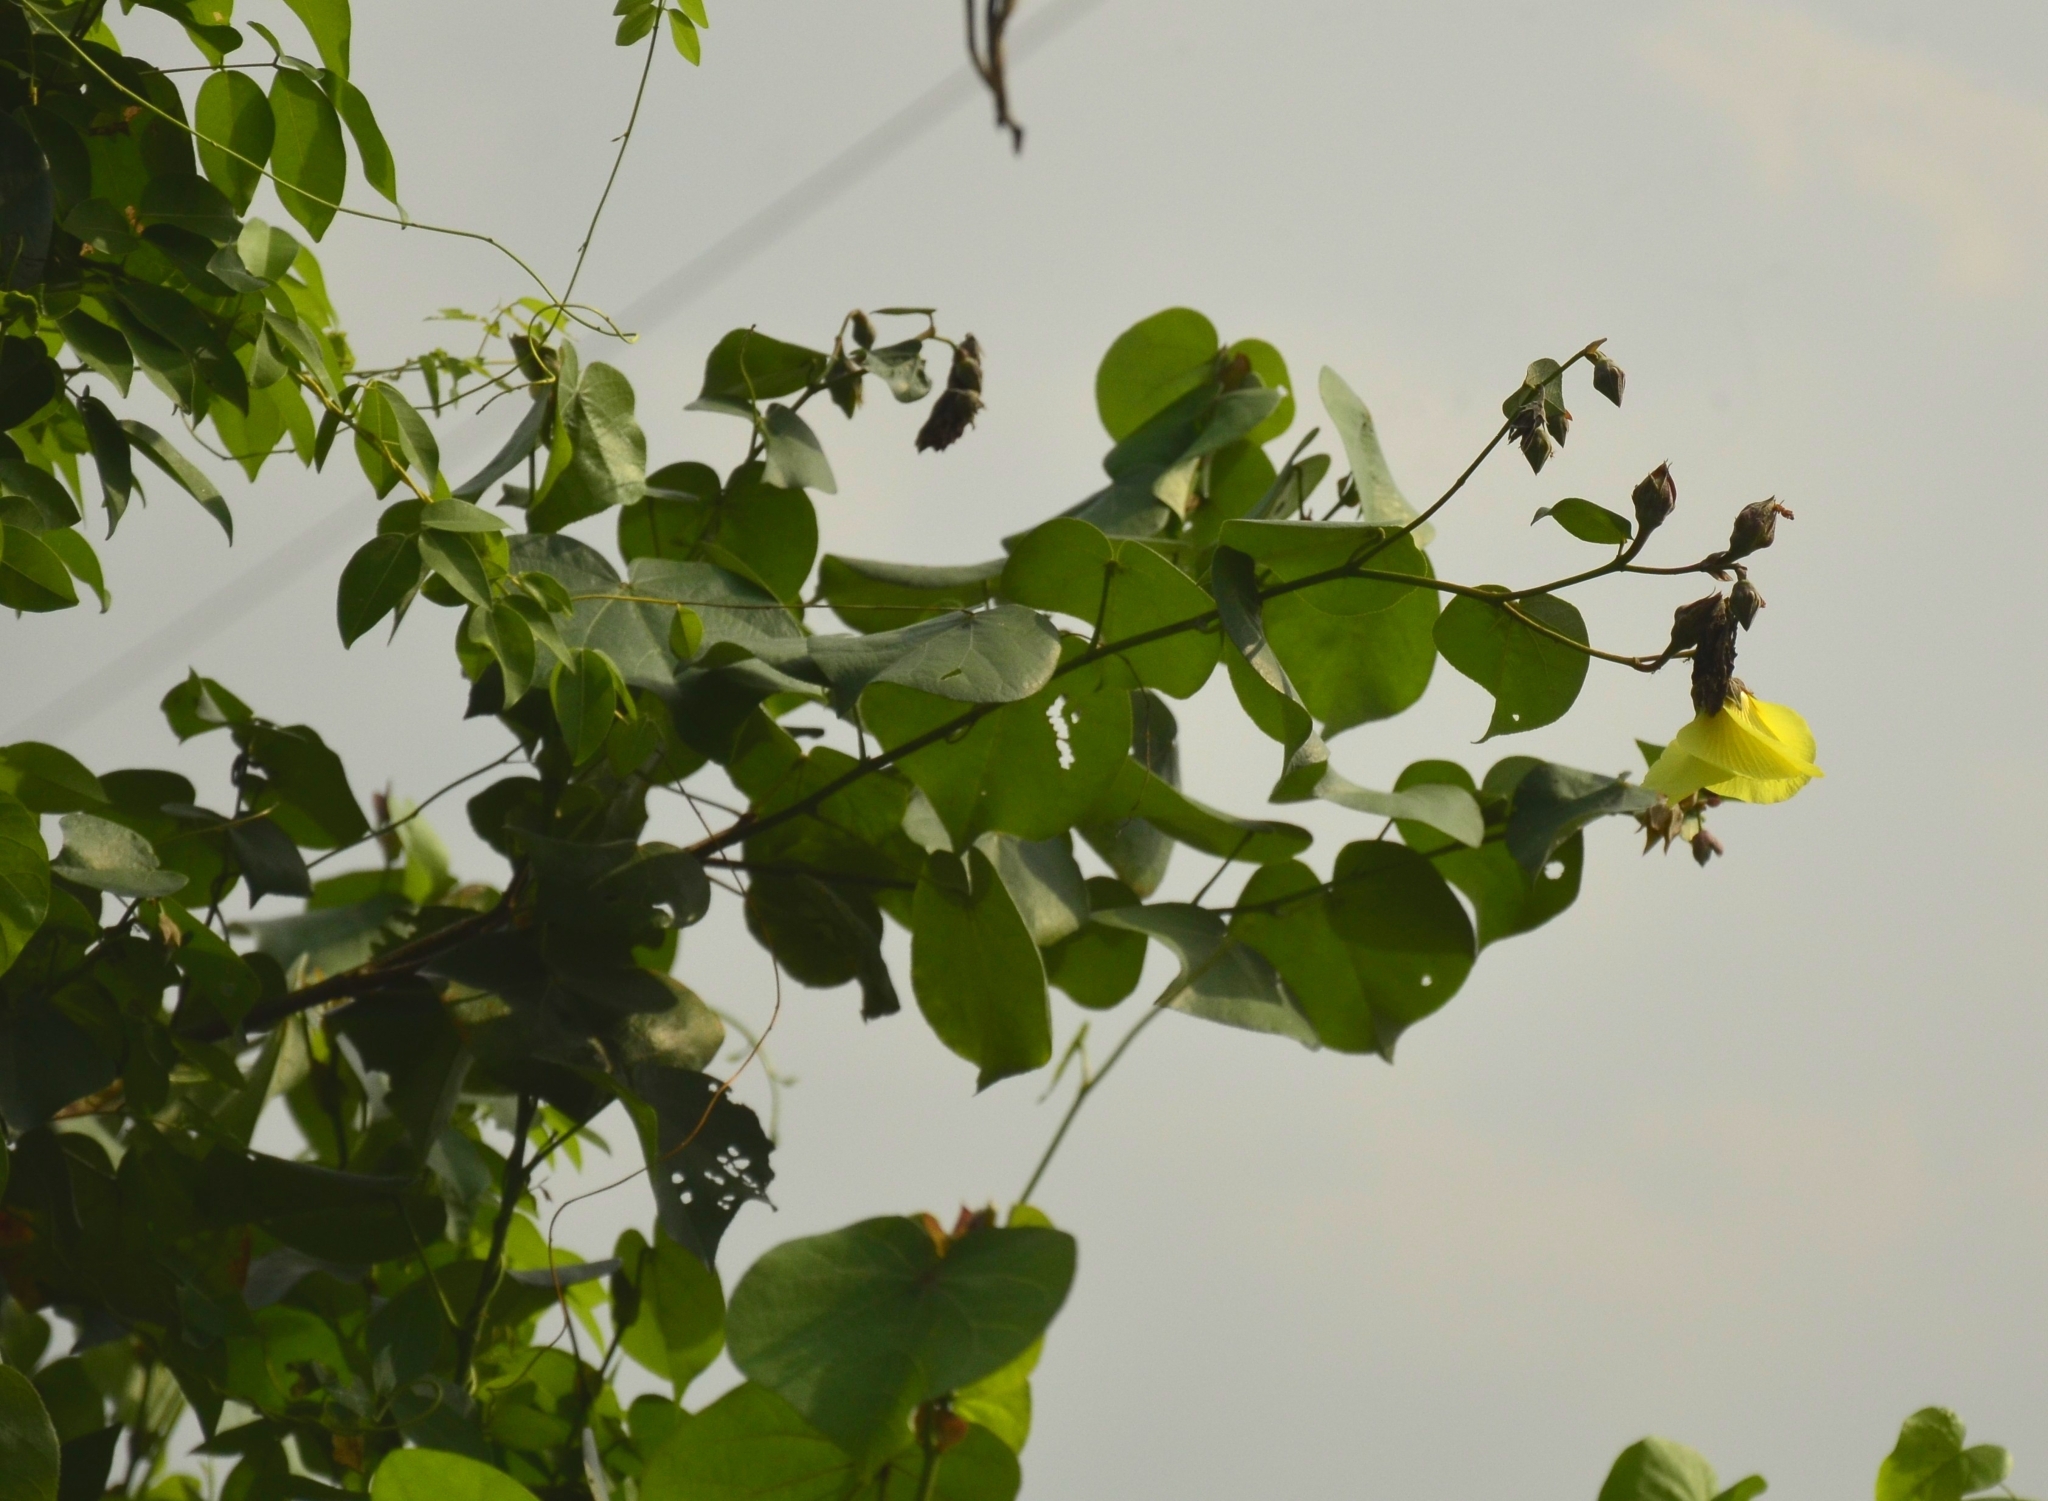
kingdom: Plantae
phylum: Tracheophyta
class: Magnoliopsida
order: Malvales
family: Malvaceae
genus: Talipariti
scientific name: Talipariti tiliaceum
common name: Sea hibiscus
